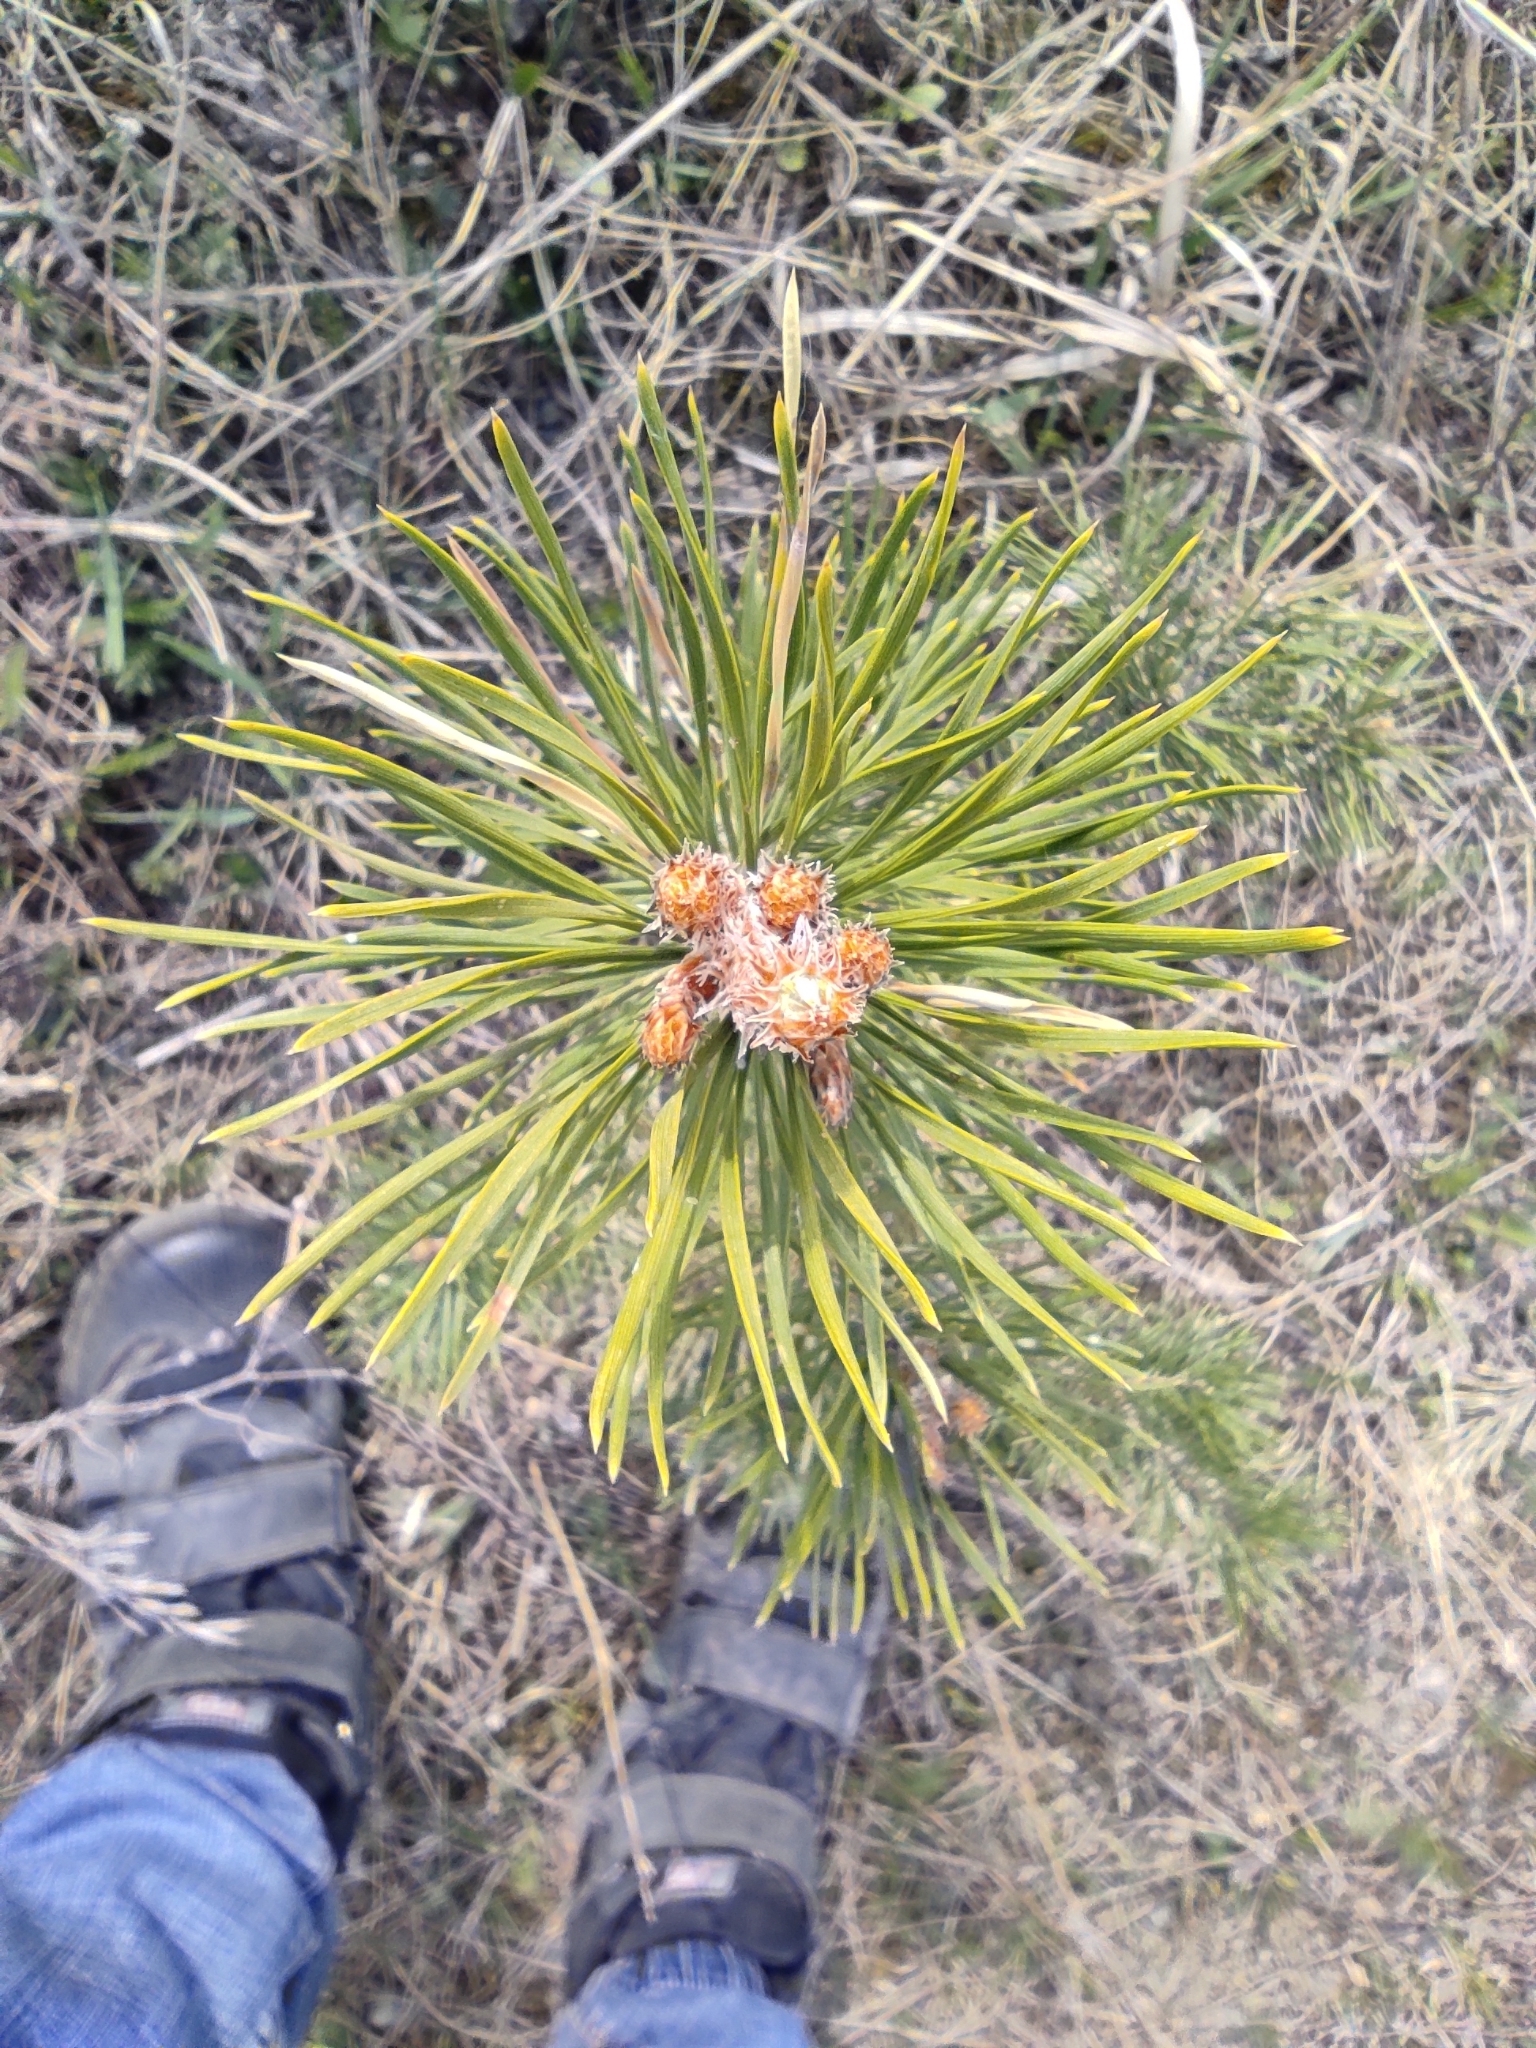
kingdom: Plantae
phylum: Tracheophyta
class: Pinopsida
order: Pinales
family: Pinaceae
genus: Pinus
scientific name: Pinus sylvestris
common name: Scots pine
